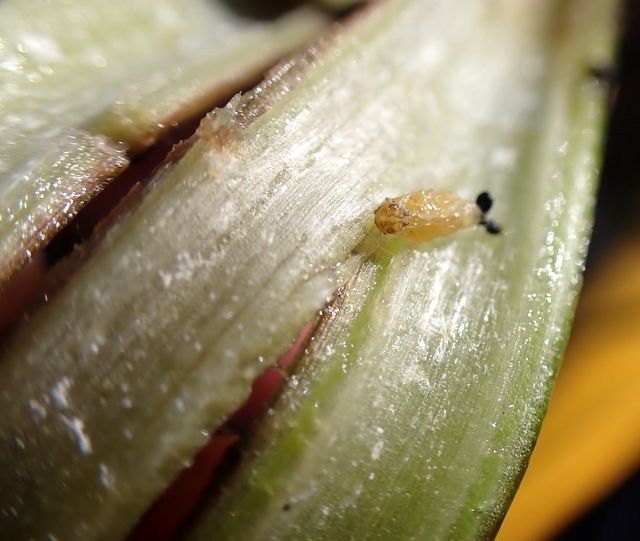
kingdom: Animalia
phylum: Arthropoda
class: Insecta
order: Coleoptera
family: Chrysomelidae
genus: Agasicles
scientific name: Agasicles hygrophila
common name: Alligatorweed flea beetle
